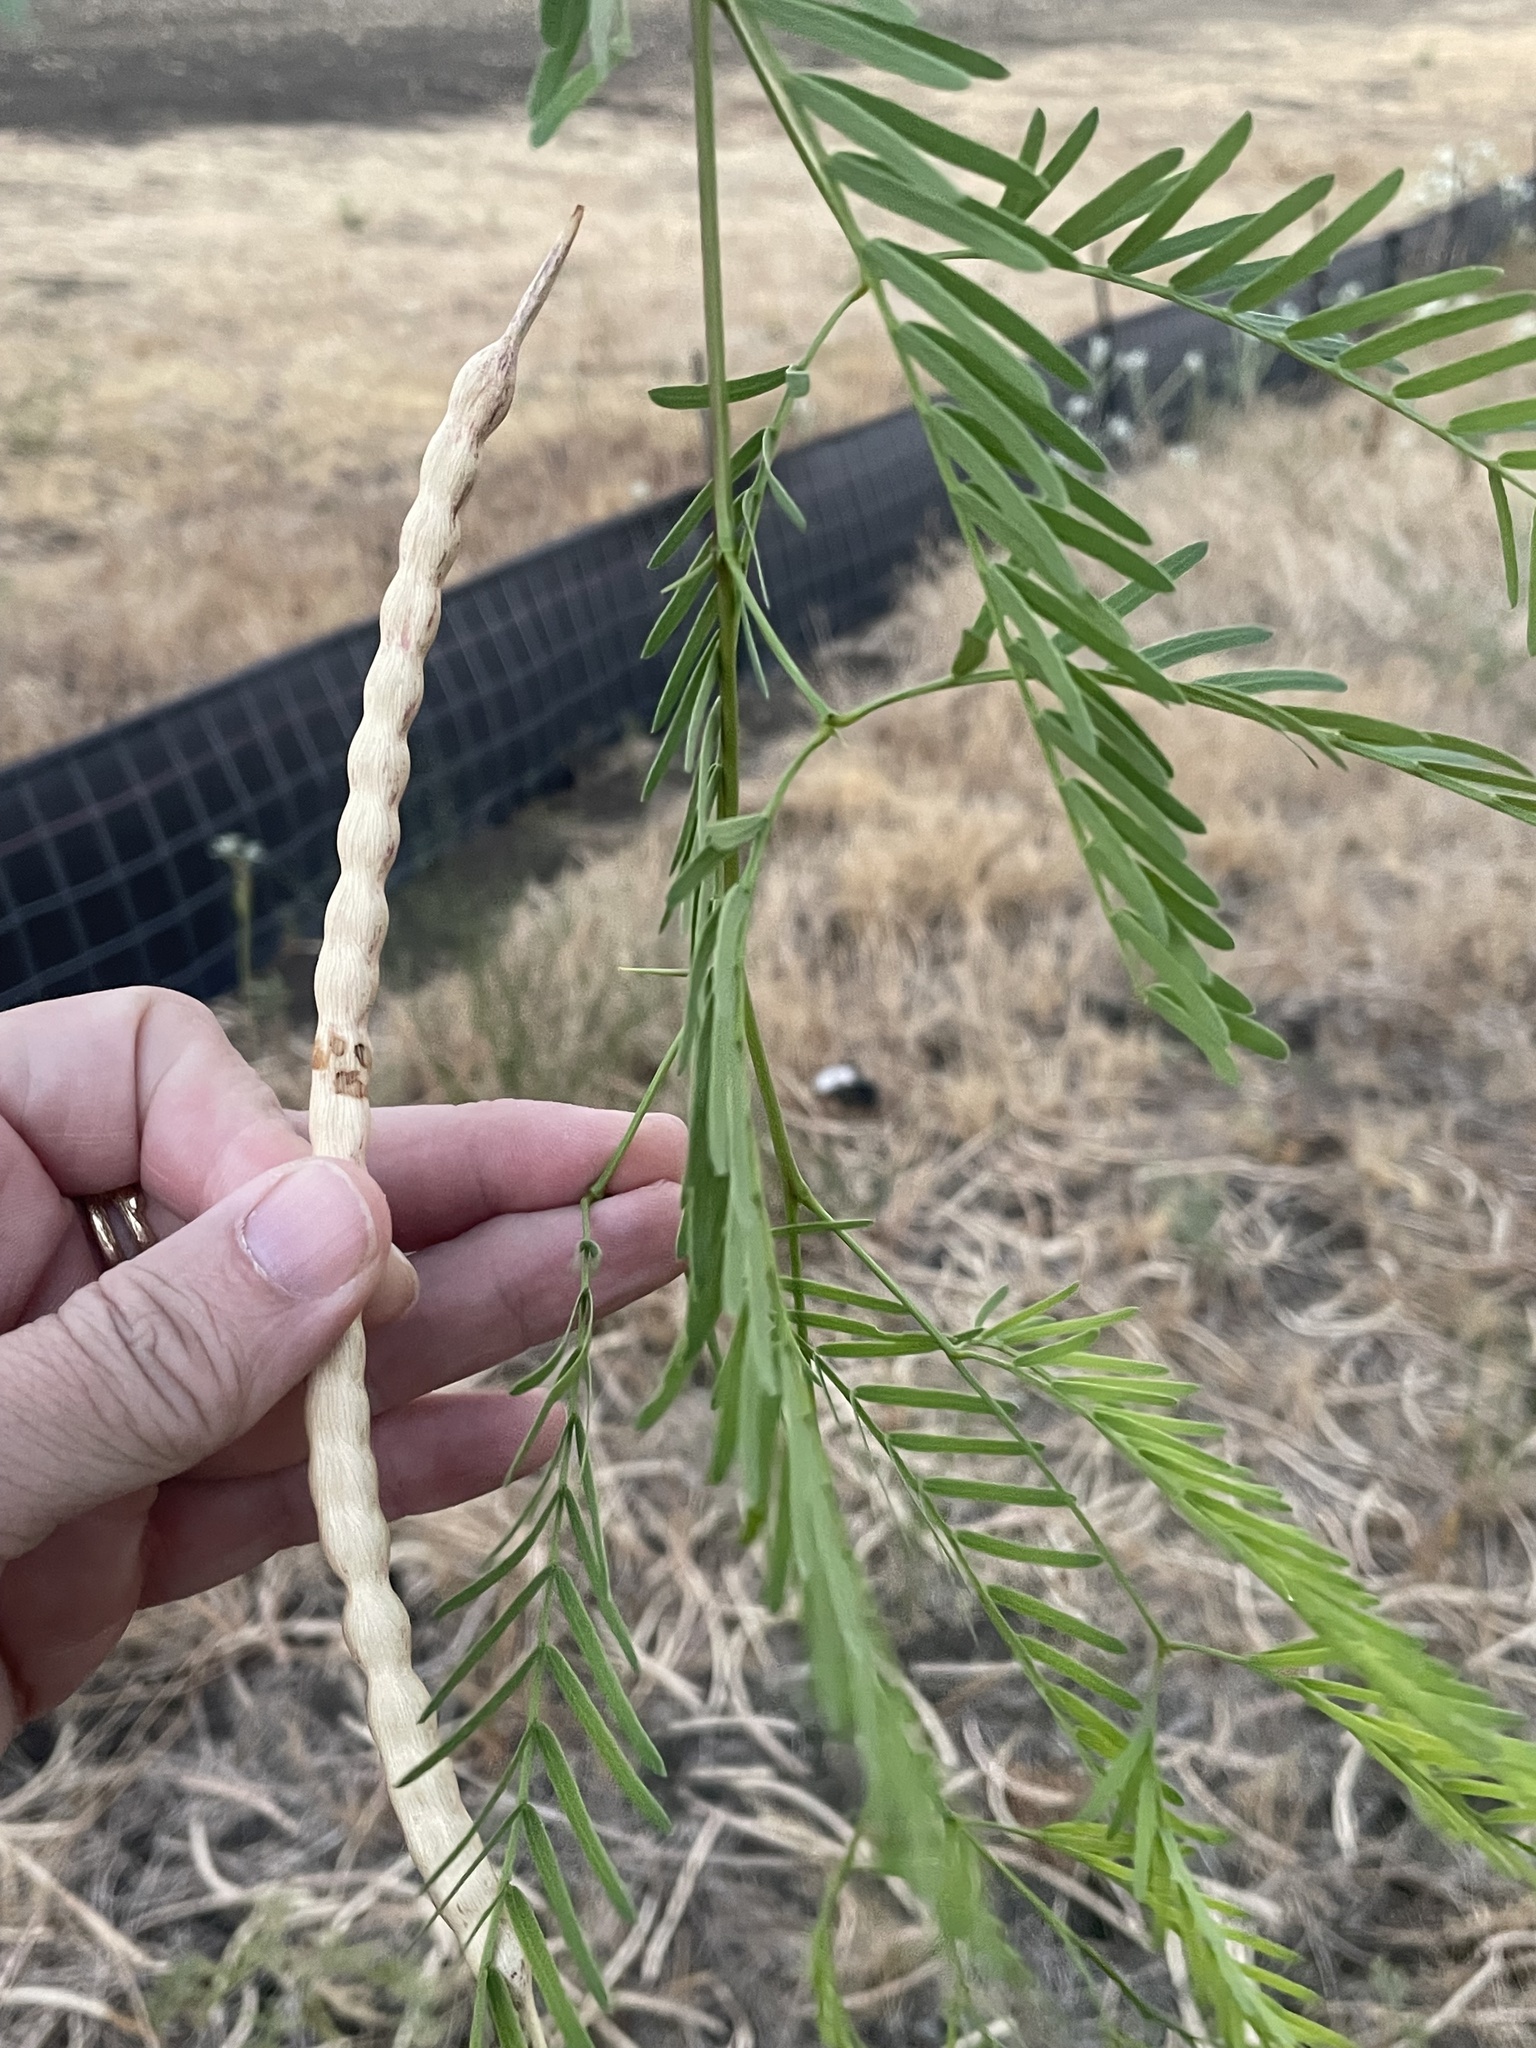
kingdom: Plantae
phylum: Tracheophyta
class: Magnoliopsida
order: Fabales
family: Fabaceae
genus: Prosopis
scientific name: Prosopis glandulosa
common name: Honey mesquite
